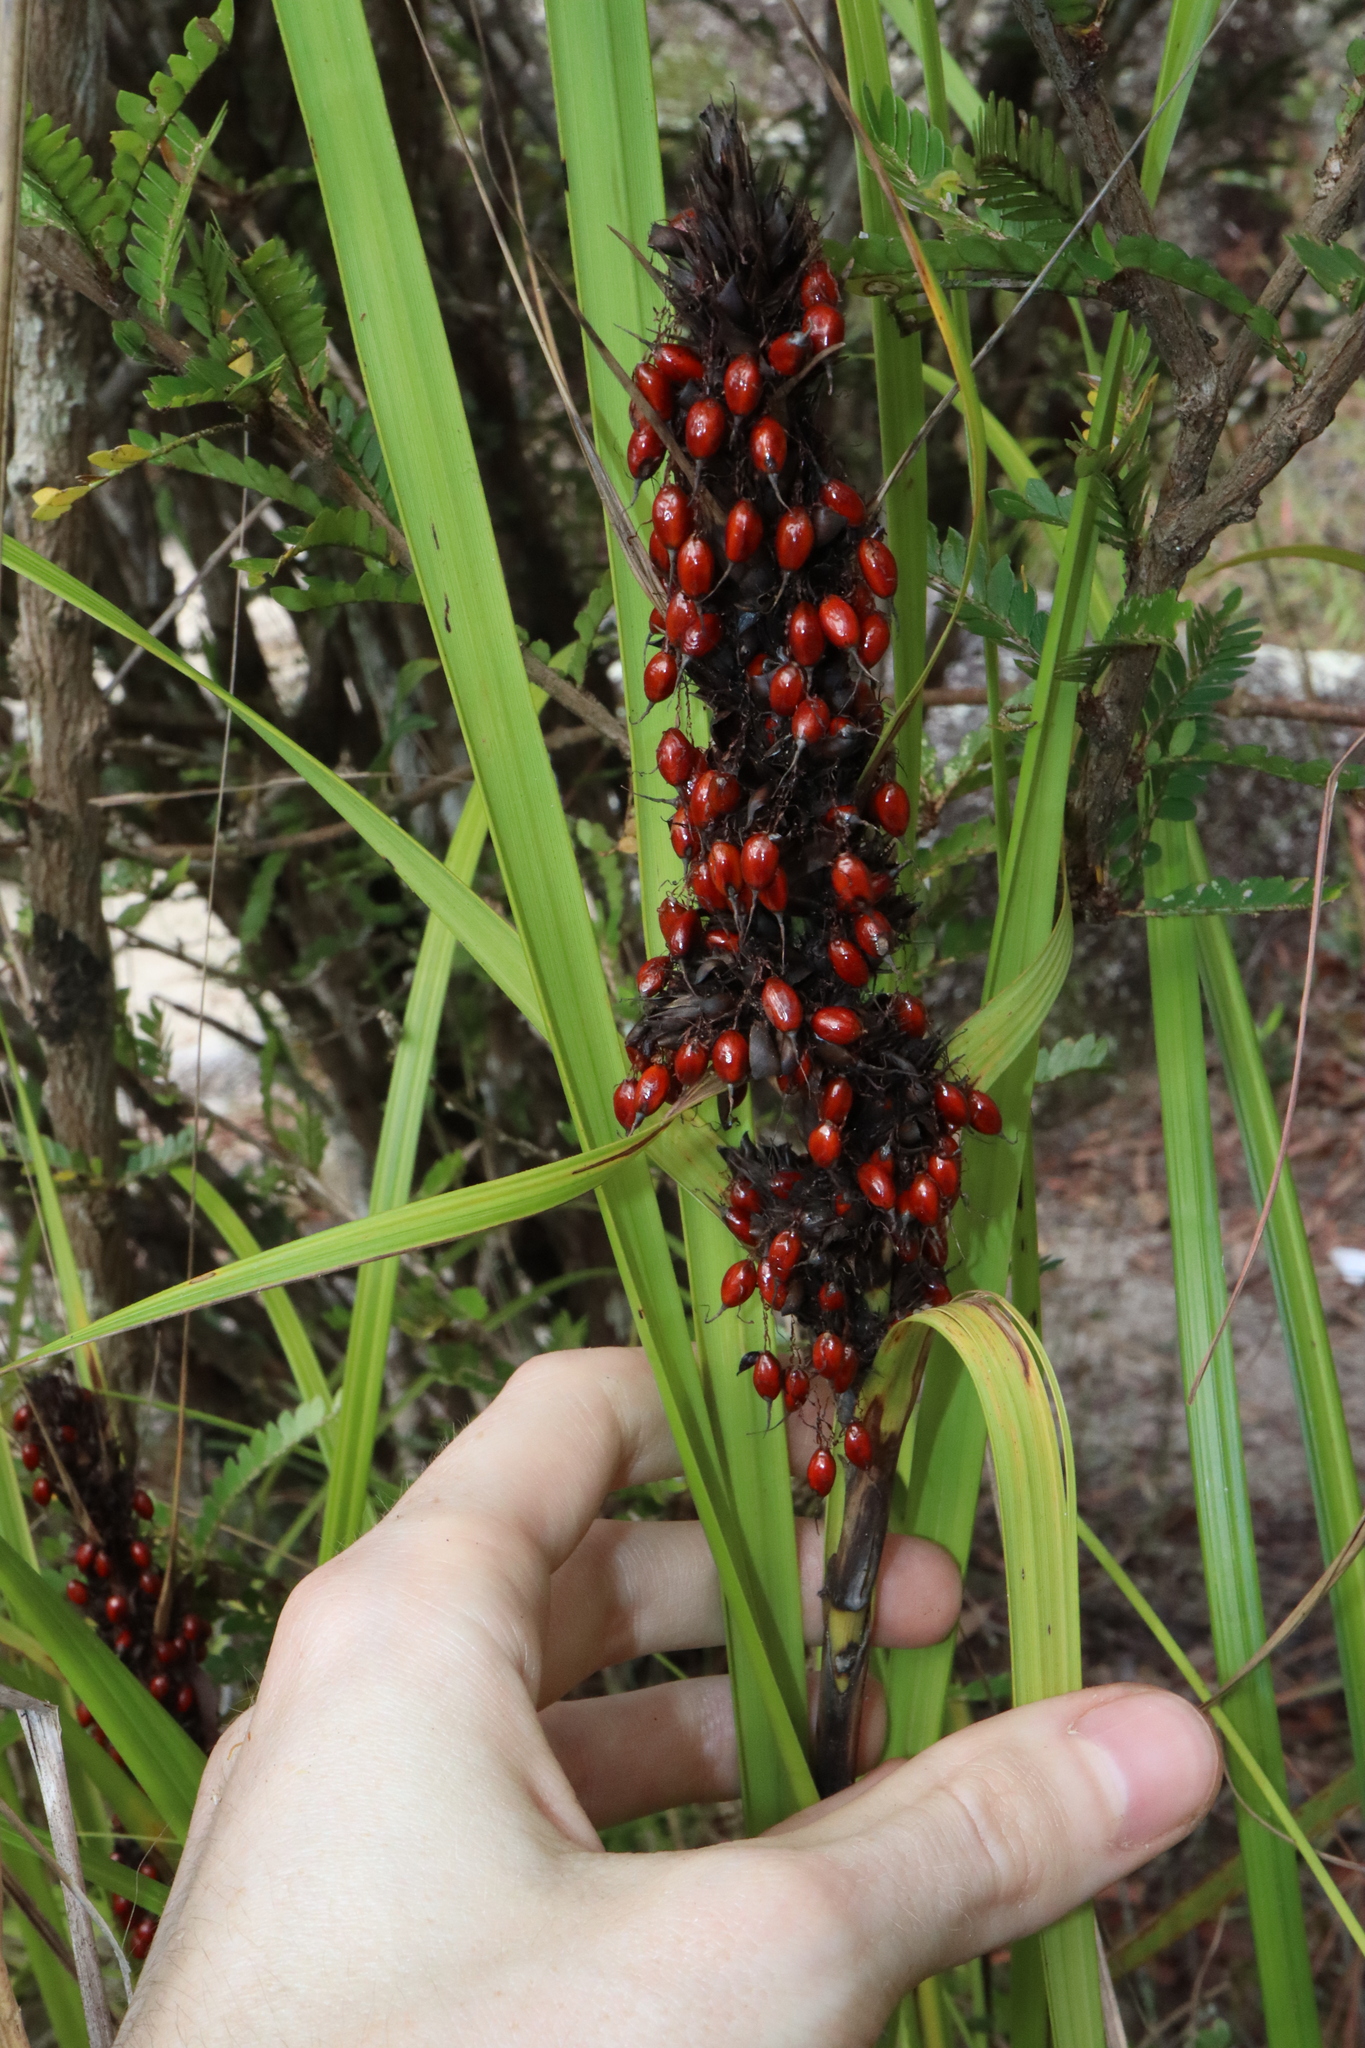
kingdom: Plantae
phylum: Tracheophyta
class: Liliopsida
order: Poales
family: Cyperaceae
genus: Gahnia
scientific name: Gahnia aspera
